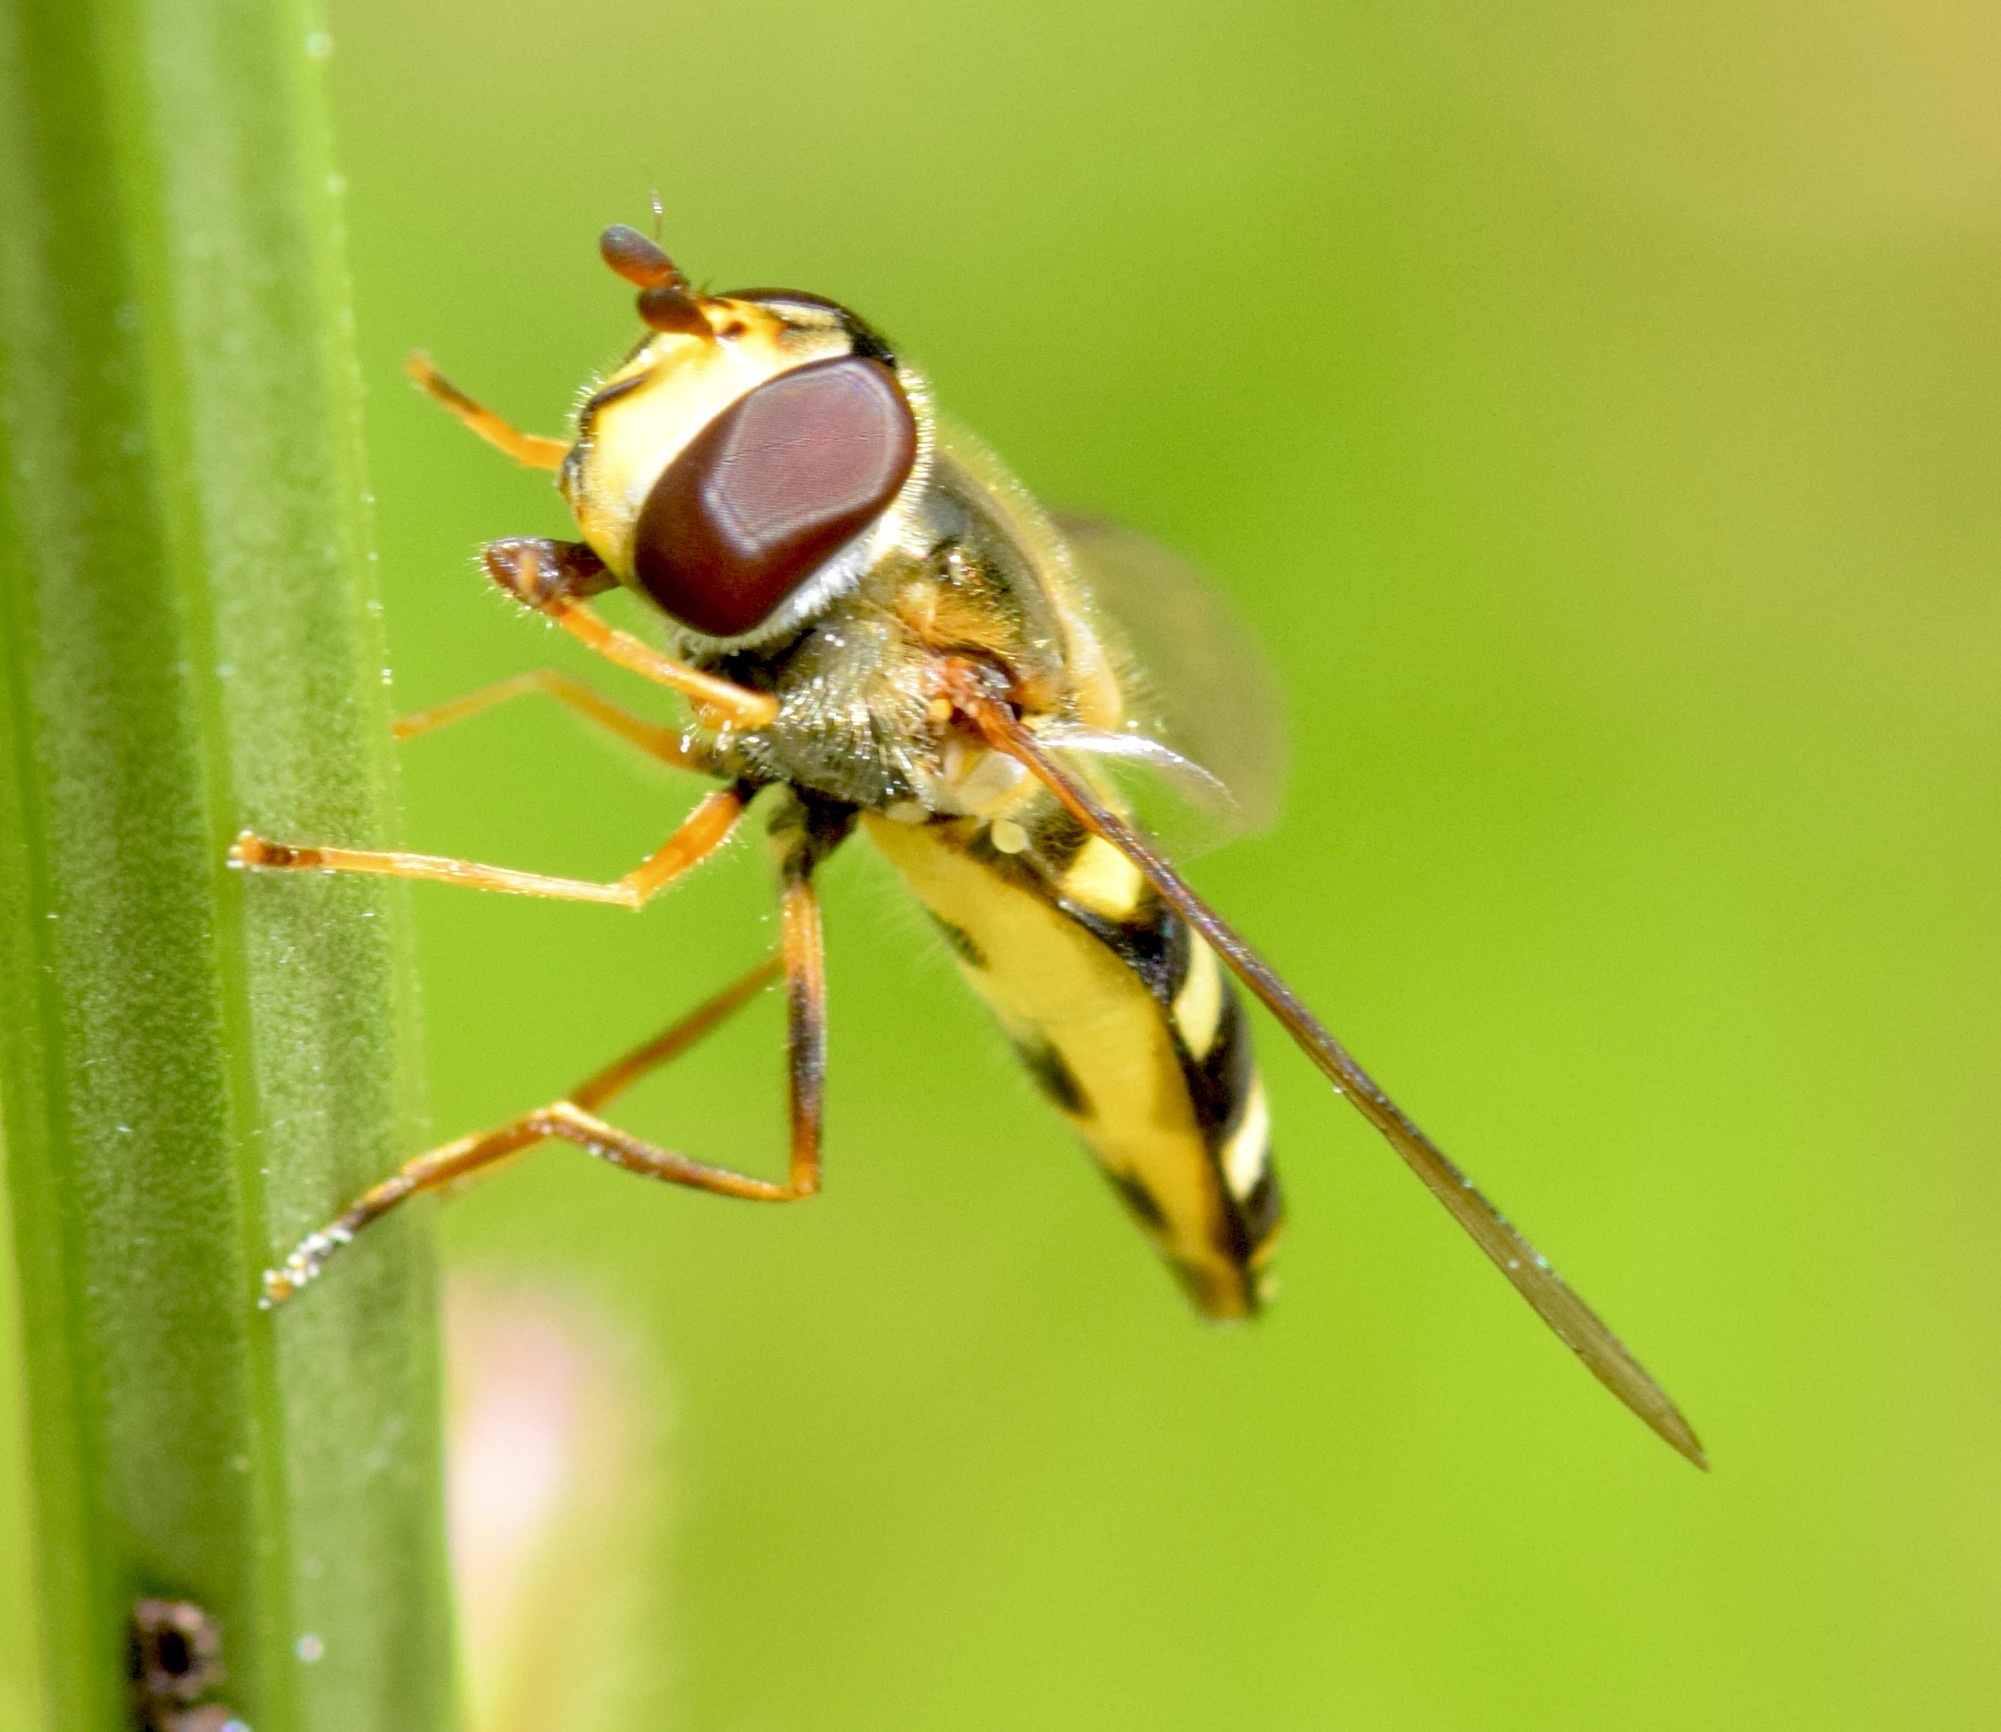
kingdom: Animalia
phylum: Arthropoda
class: Insecta
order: Diptera
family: Syrphidae
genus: Eupeodes
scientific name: Eupeodes
